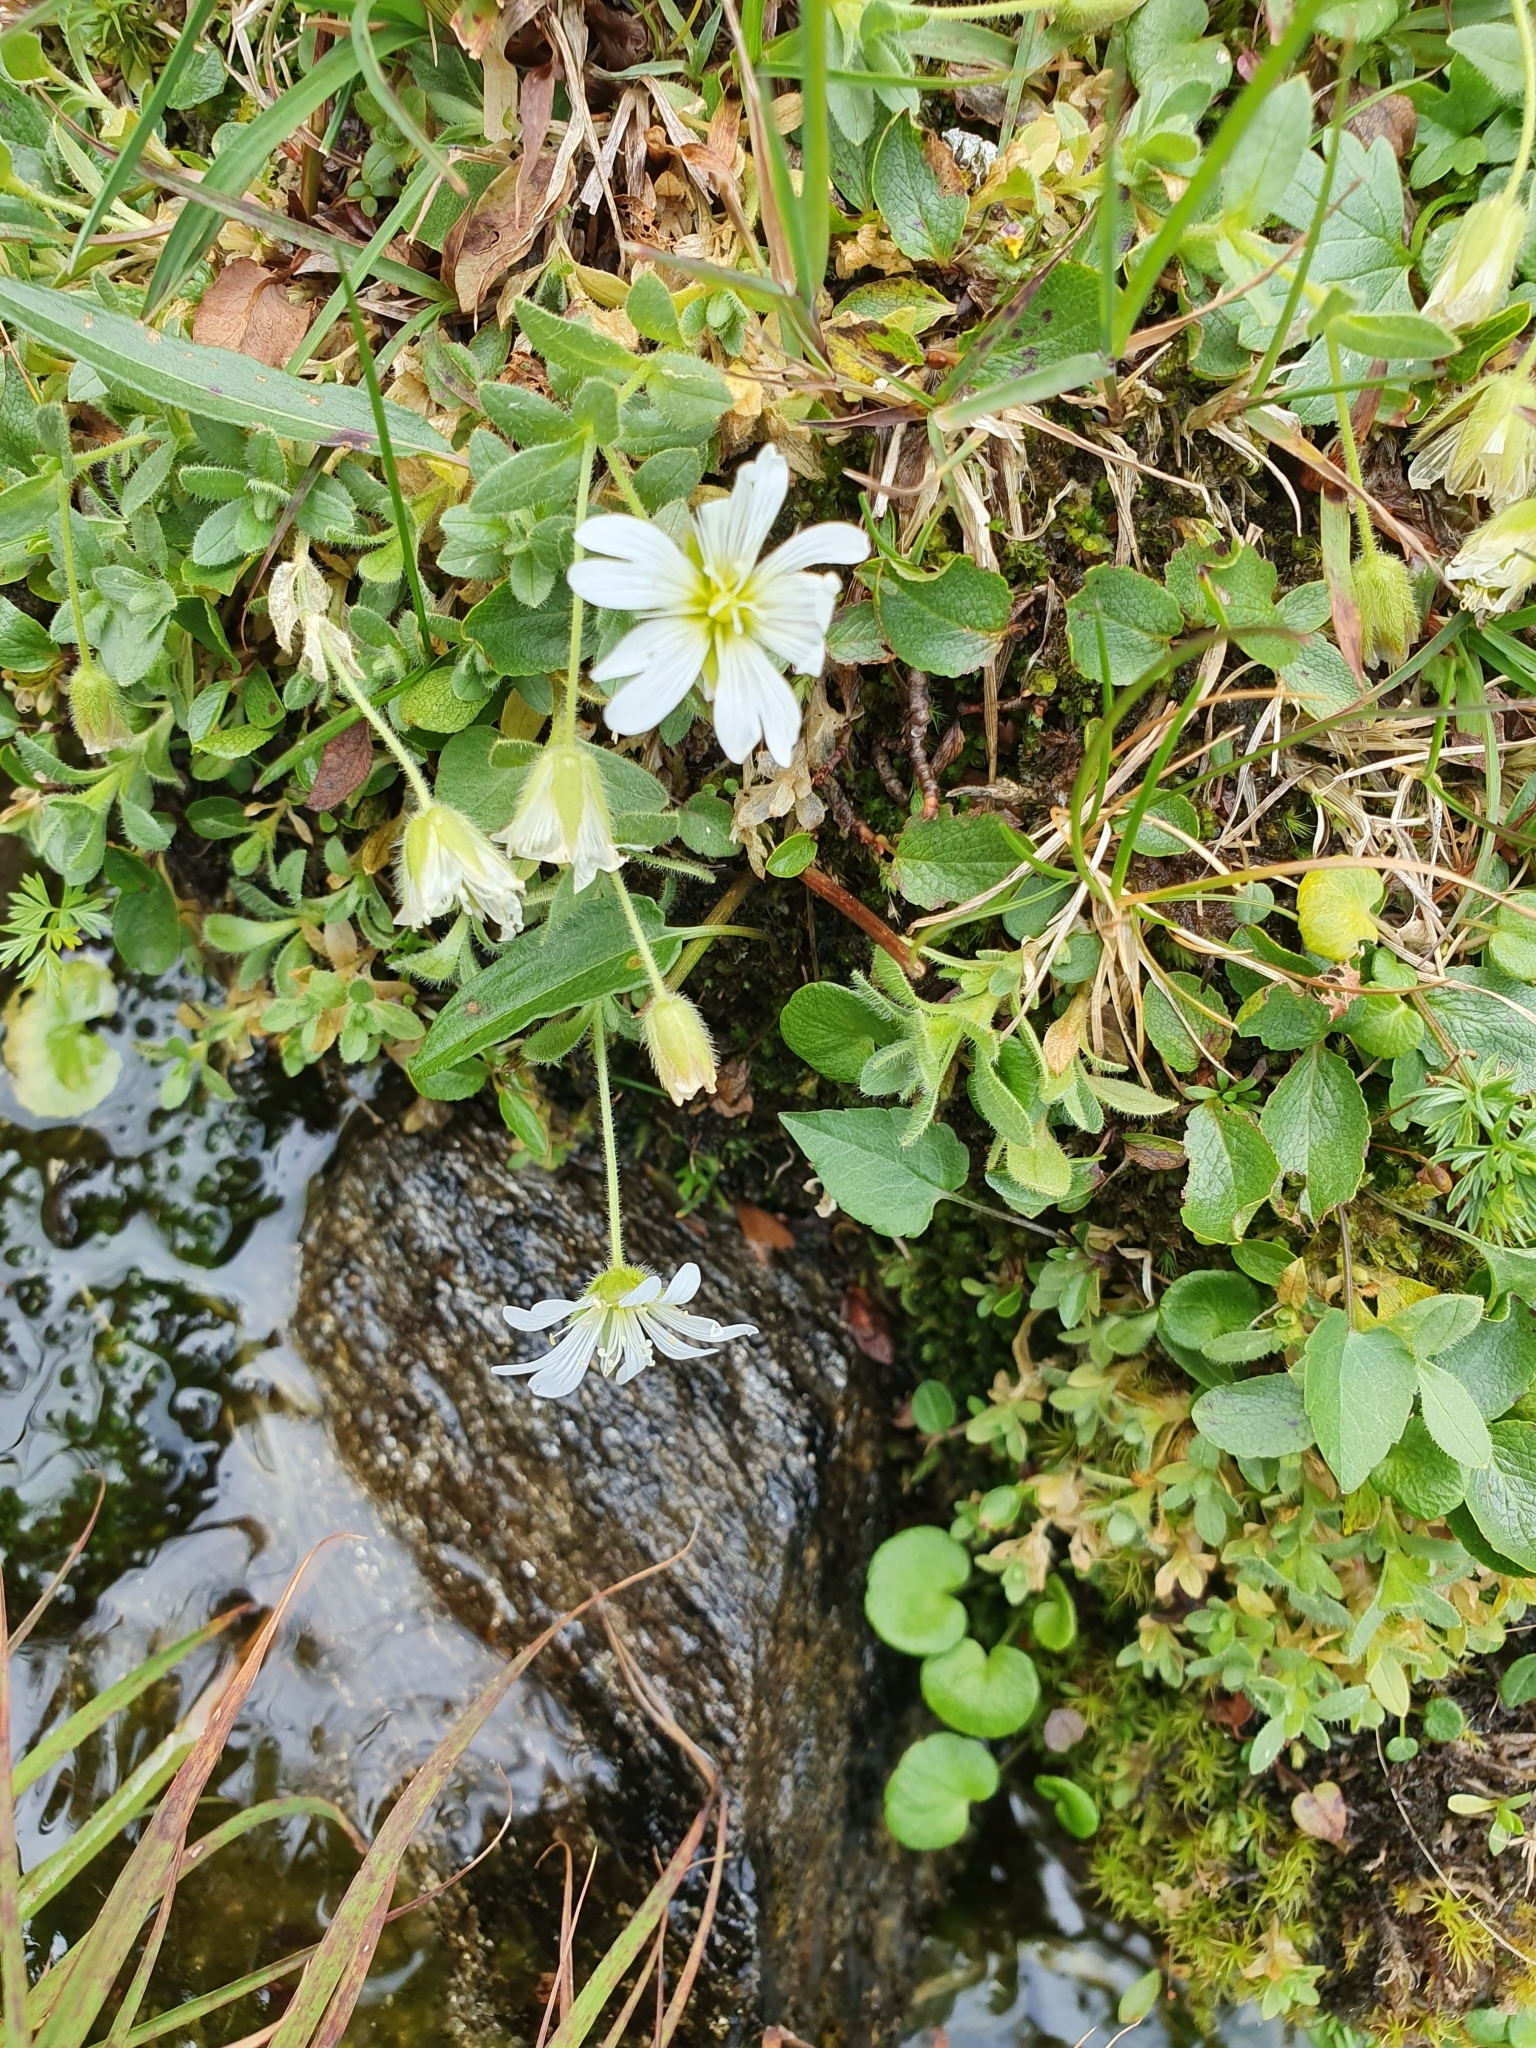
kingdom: Plantae
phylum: Tracheophyta
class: Magnoliopsida
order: Caryophyllales
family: Caryophyllaceae
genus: Cerastium
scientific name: Cerastium uniflorum
